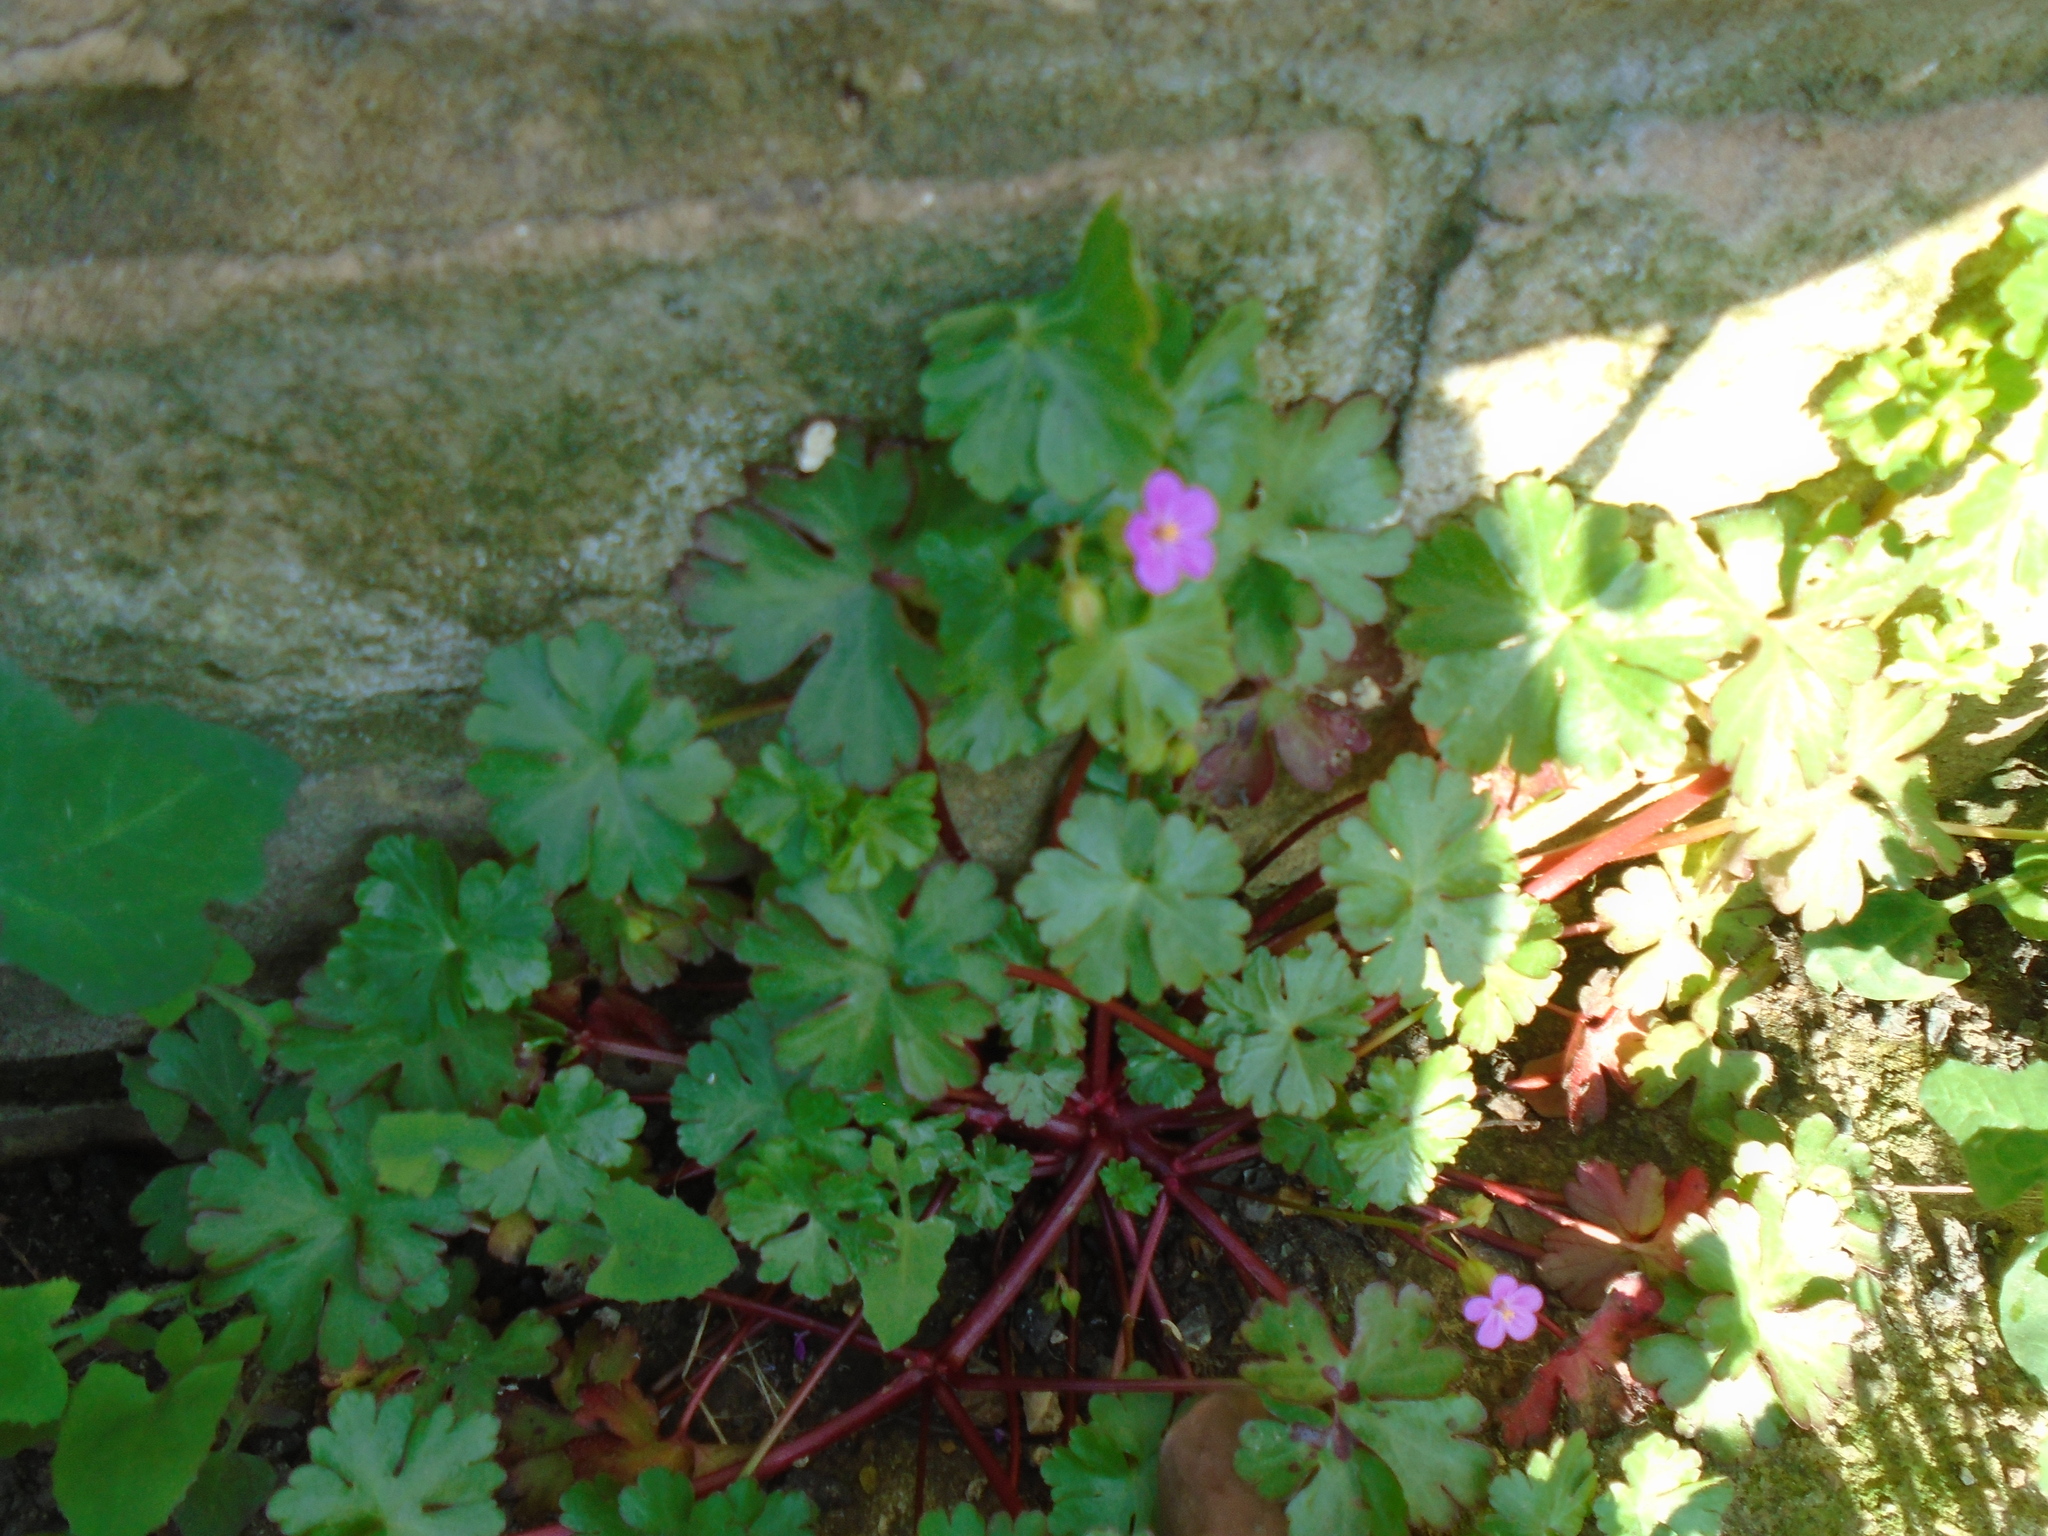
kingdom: Plantae
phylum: Tracheophyta
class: Magnoliopsida
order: Geraniales
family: Geraniaceae
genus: Geranium
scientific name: Geranium lucidum
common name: Shining crane's-bill
